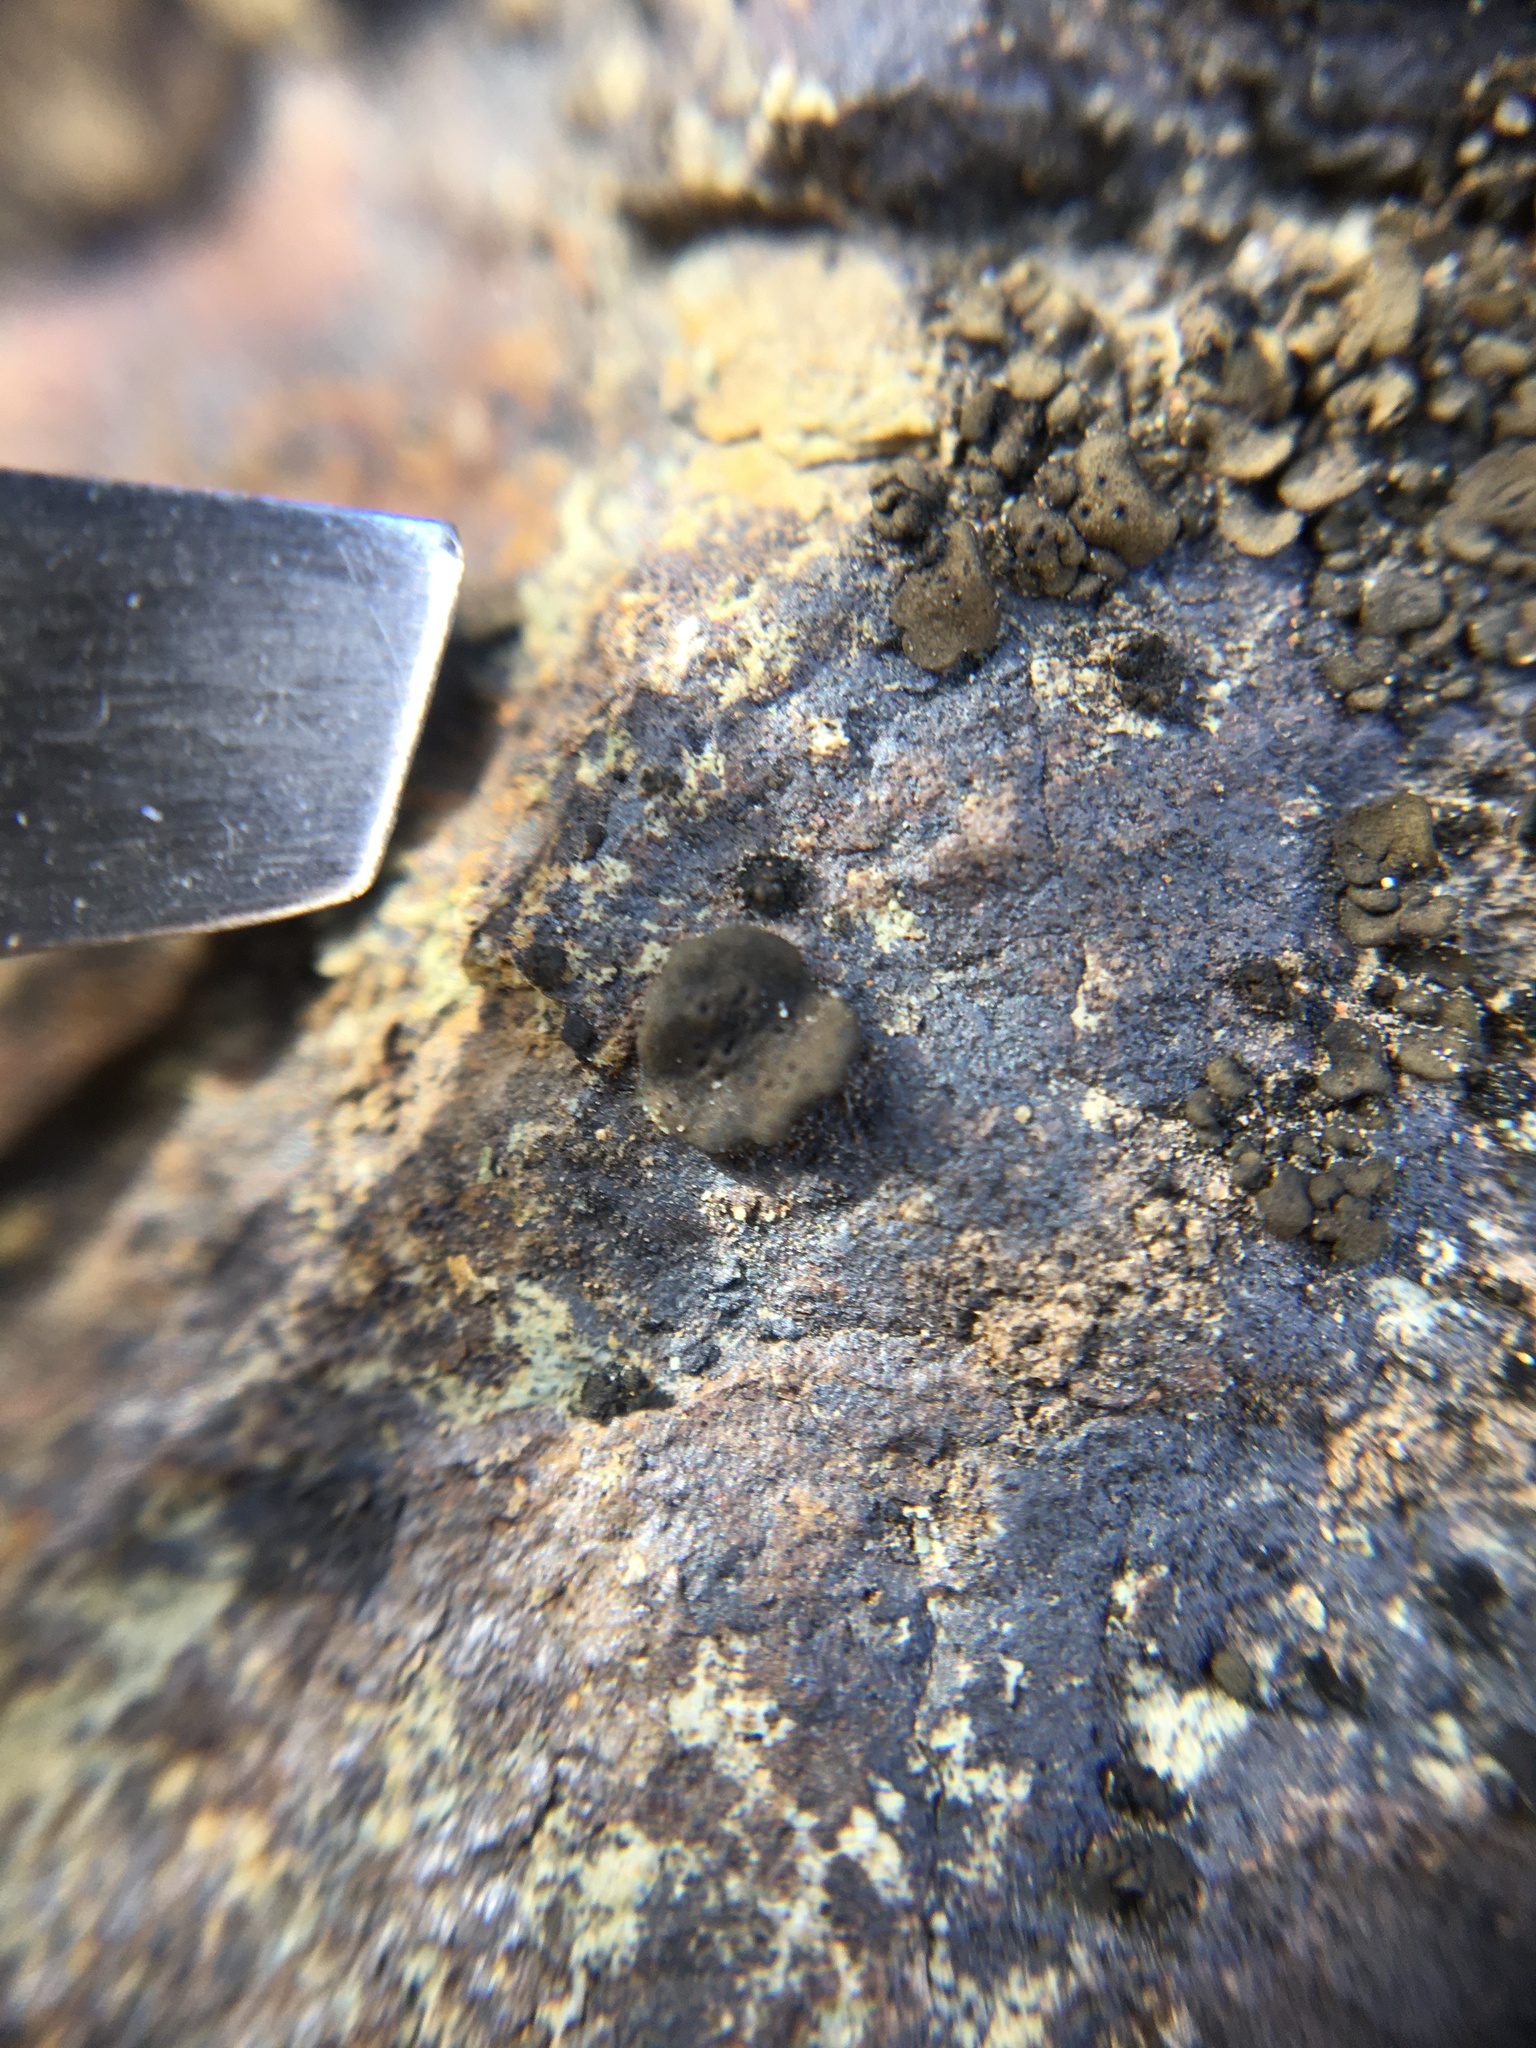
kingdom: Fungi
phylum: Ascomycota
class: Lecanoromycetes
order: Umbilicariales
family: Umbilicariaceae
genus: Umbilicaria
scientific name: Umbilicaria phaea
